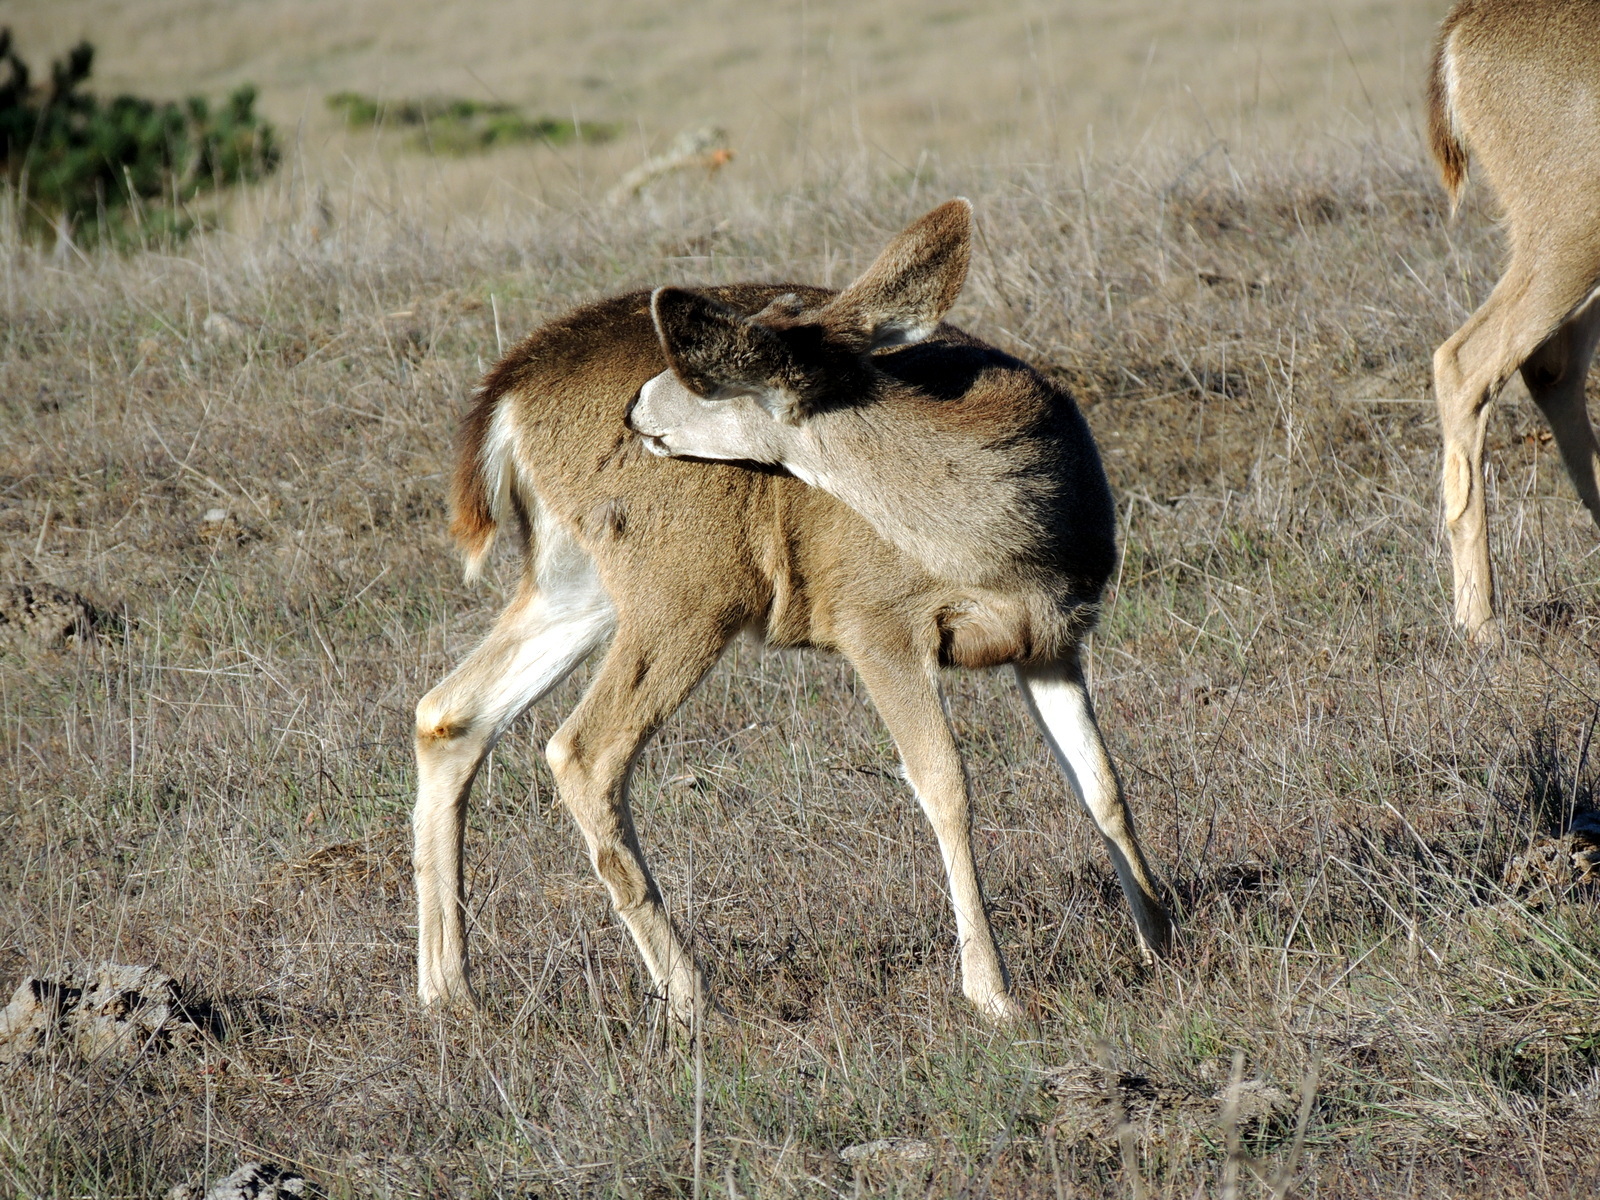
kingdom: Animalia
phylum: Chordata
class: Mammalia
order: Artiodactyla
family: Cervidae
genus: Odocoileus
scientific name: Odocoileus hemionus
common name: Mule deer
